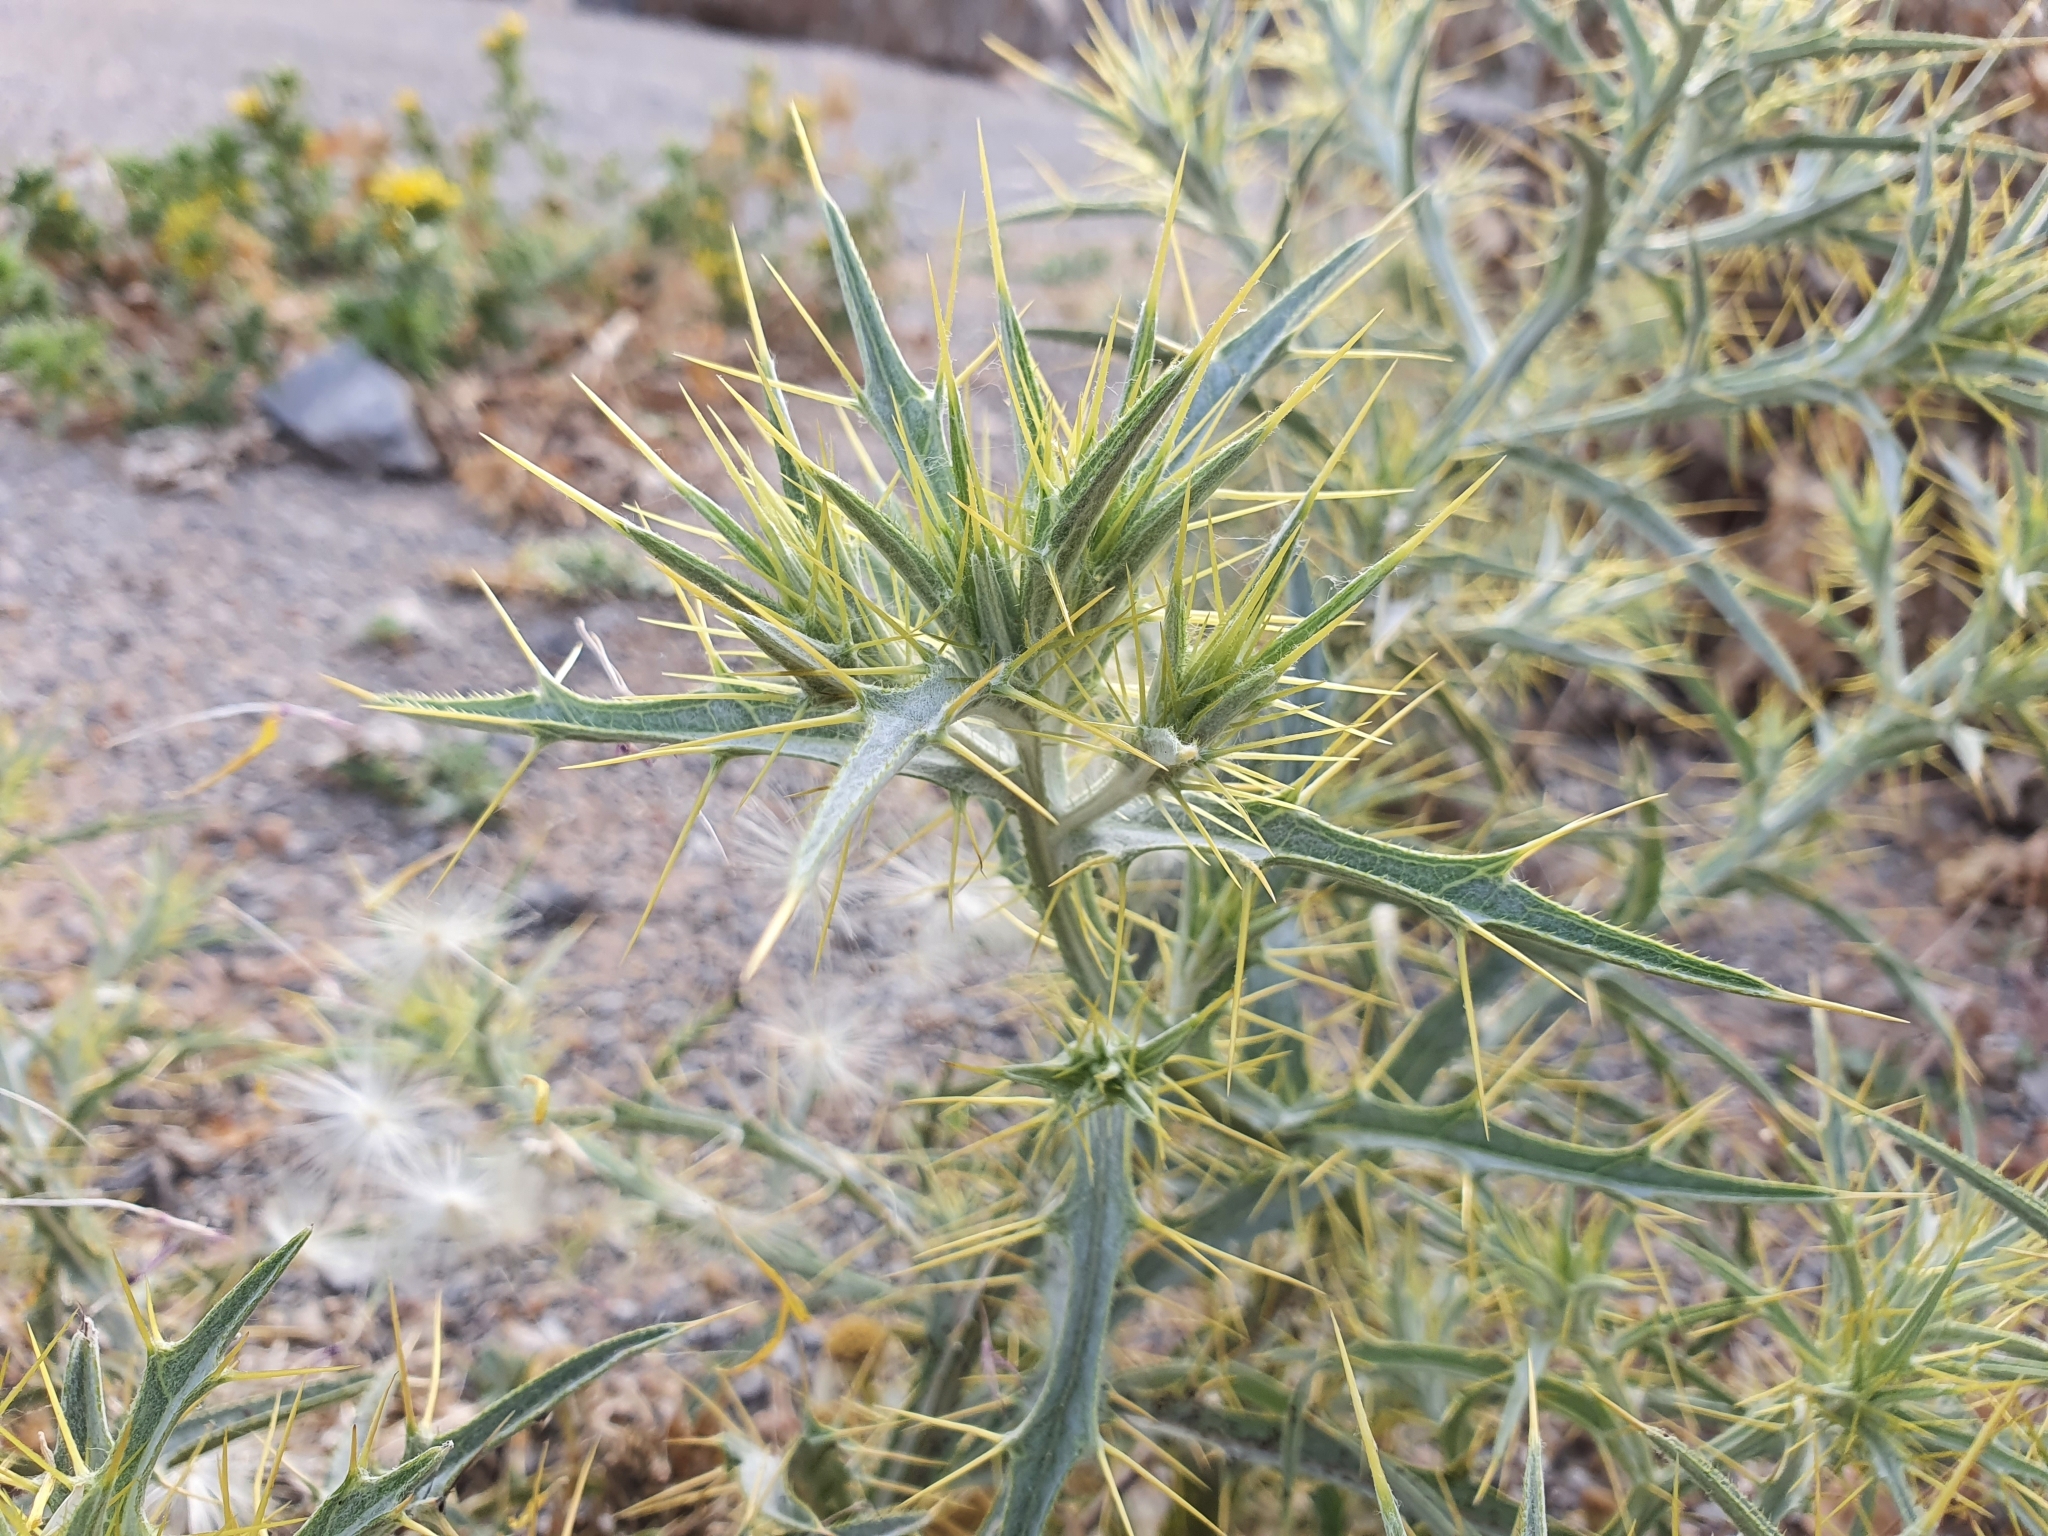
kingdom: Plantae
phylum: Tracheophyta
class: Magnoliopsida
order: Asterales
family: Asteraceae
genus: Picnomon
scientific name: Picnomon acarna
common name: Soldier thistle
